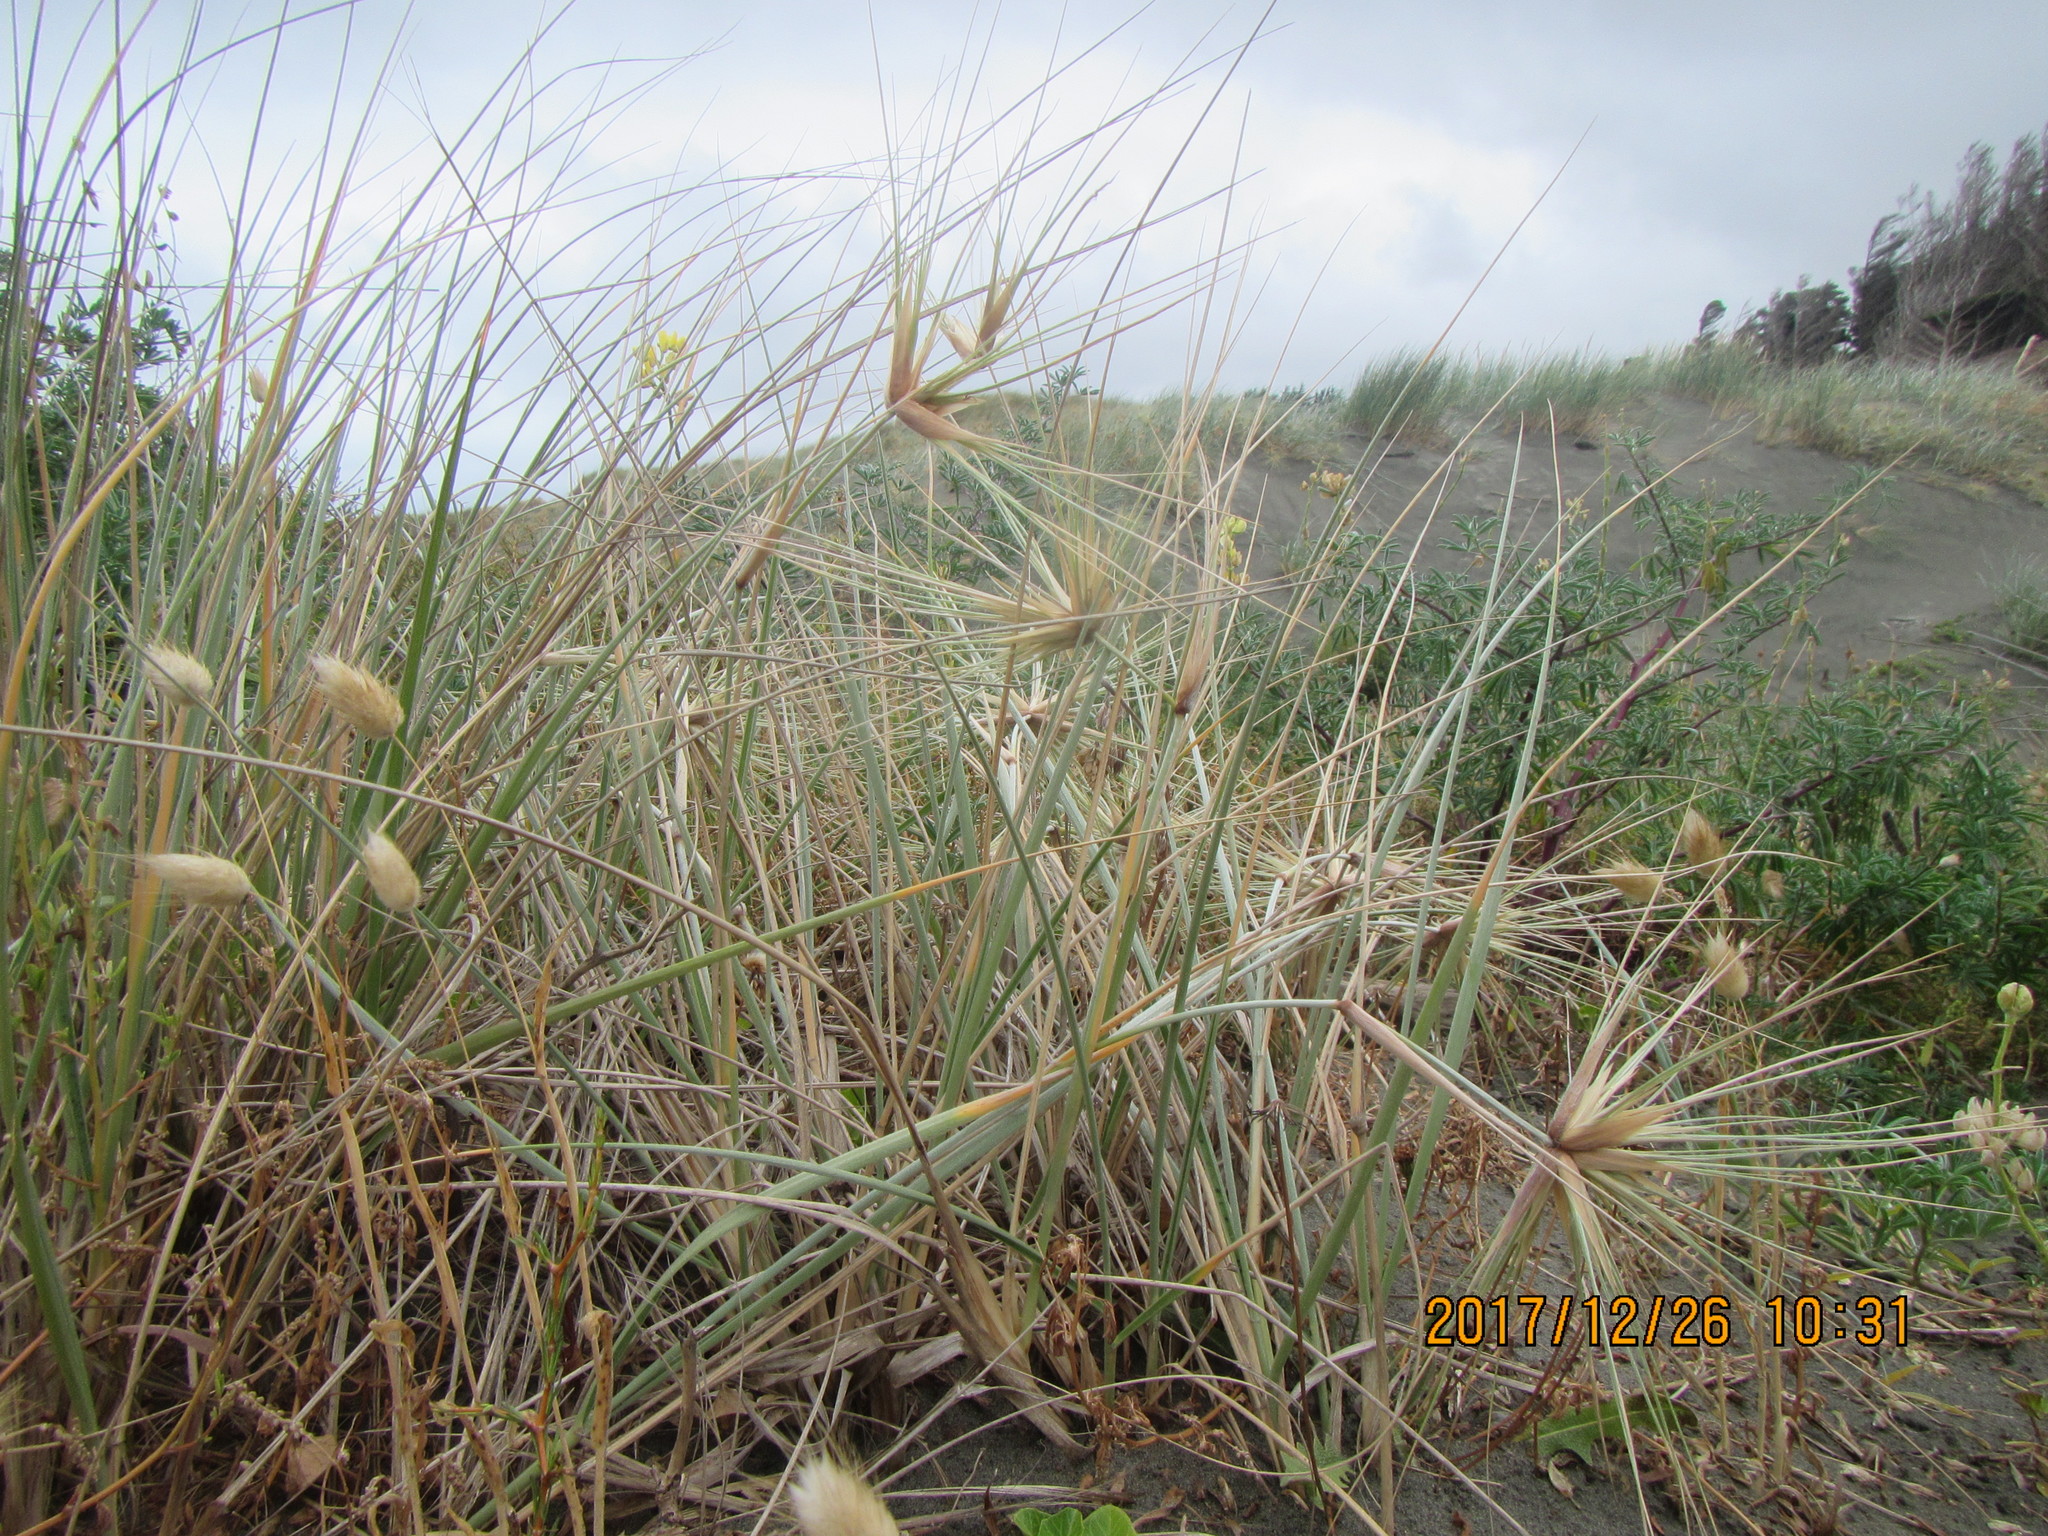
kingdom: Plantae
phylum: Tracheophyta
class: Liliopsida
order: Poales
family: Poaceae
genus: Spinifex
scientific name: Spinifex sericeus
